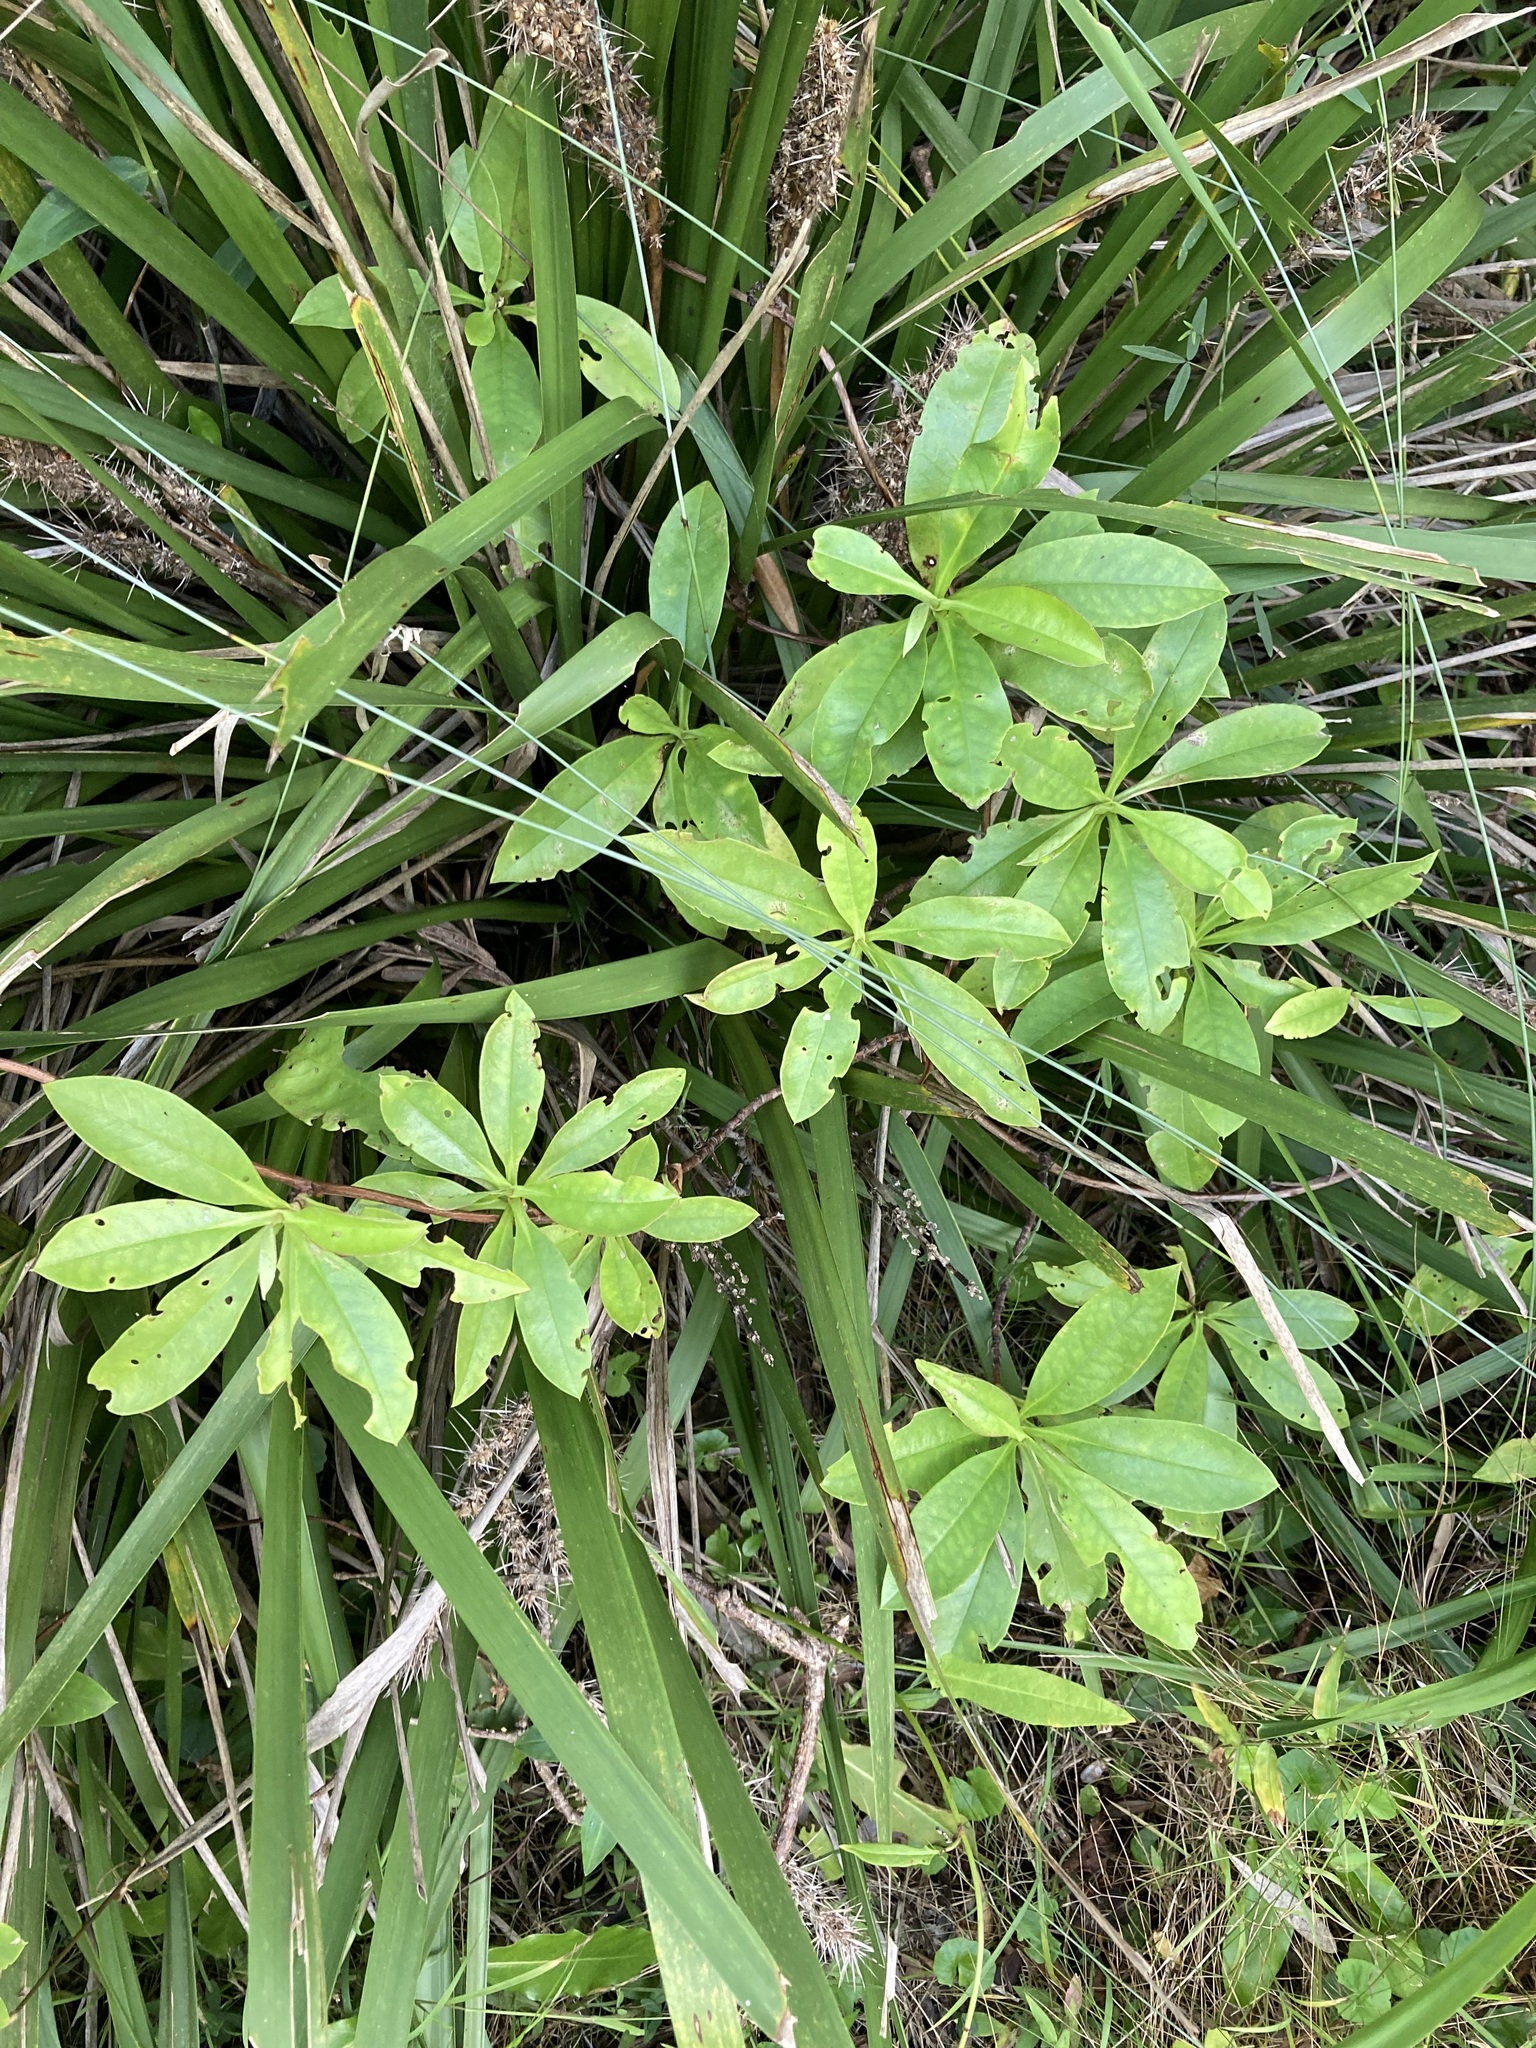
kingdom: Plantae
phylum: Tracheophyta
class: Magnoliopsida
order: Dilleniales
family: Dilleniaceae
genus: Hibbertia
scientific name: Hibbertia scandens
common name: Climbing guinea-flower
